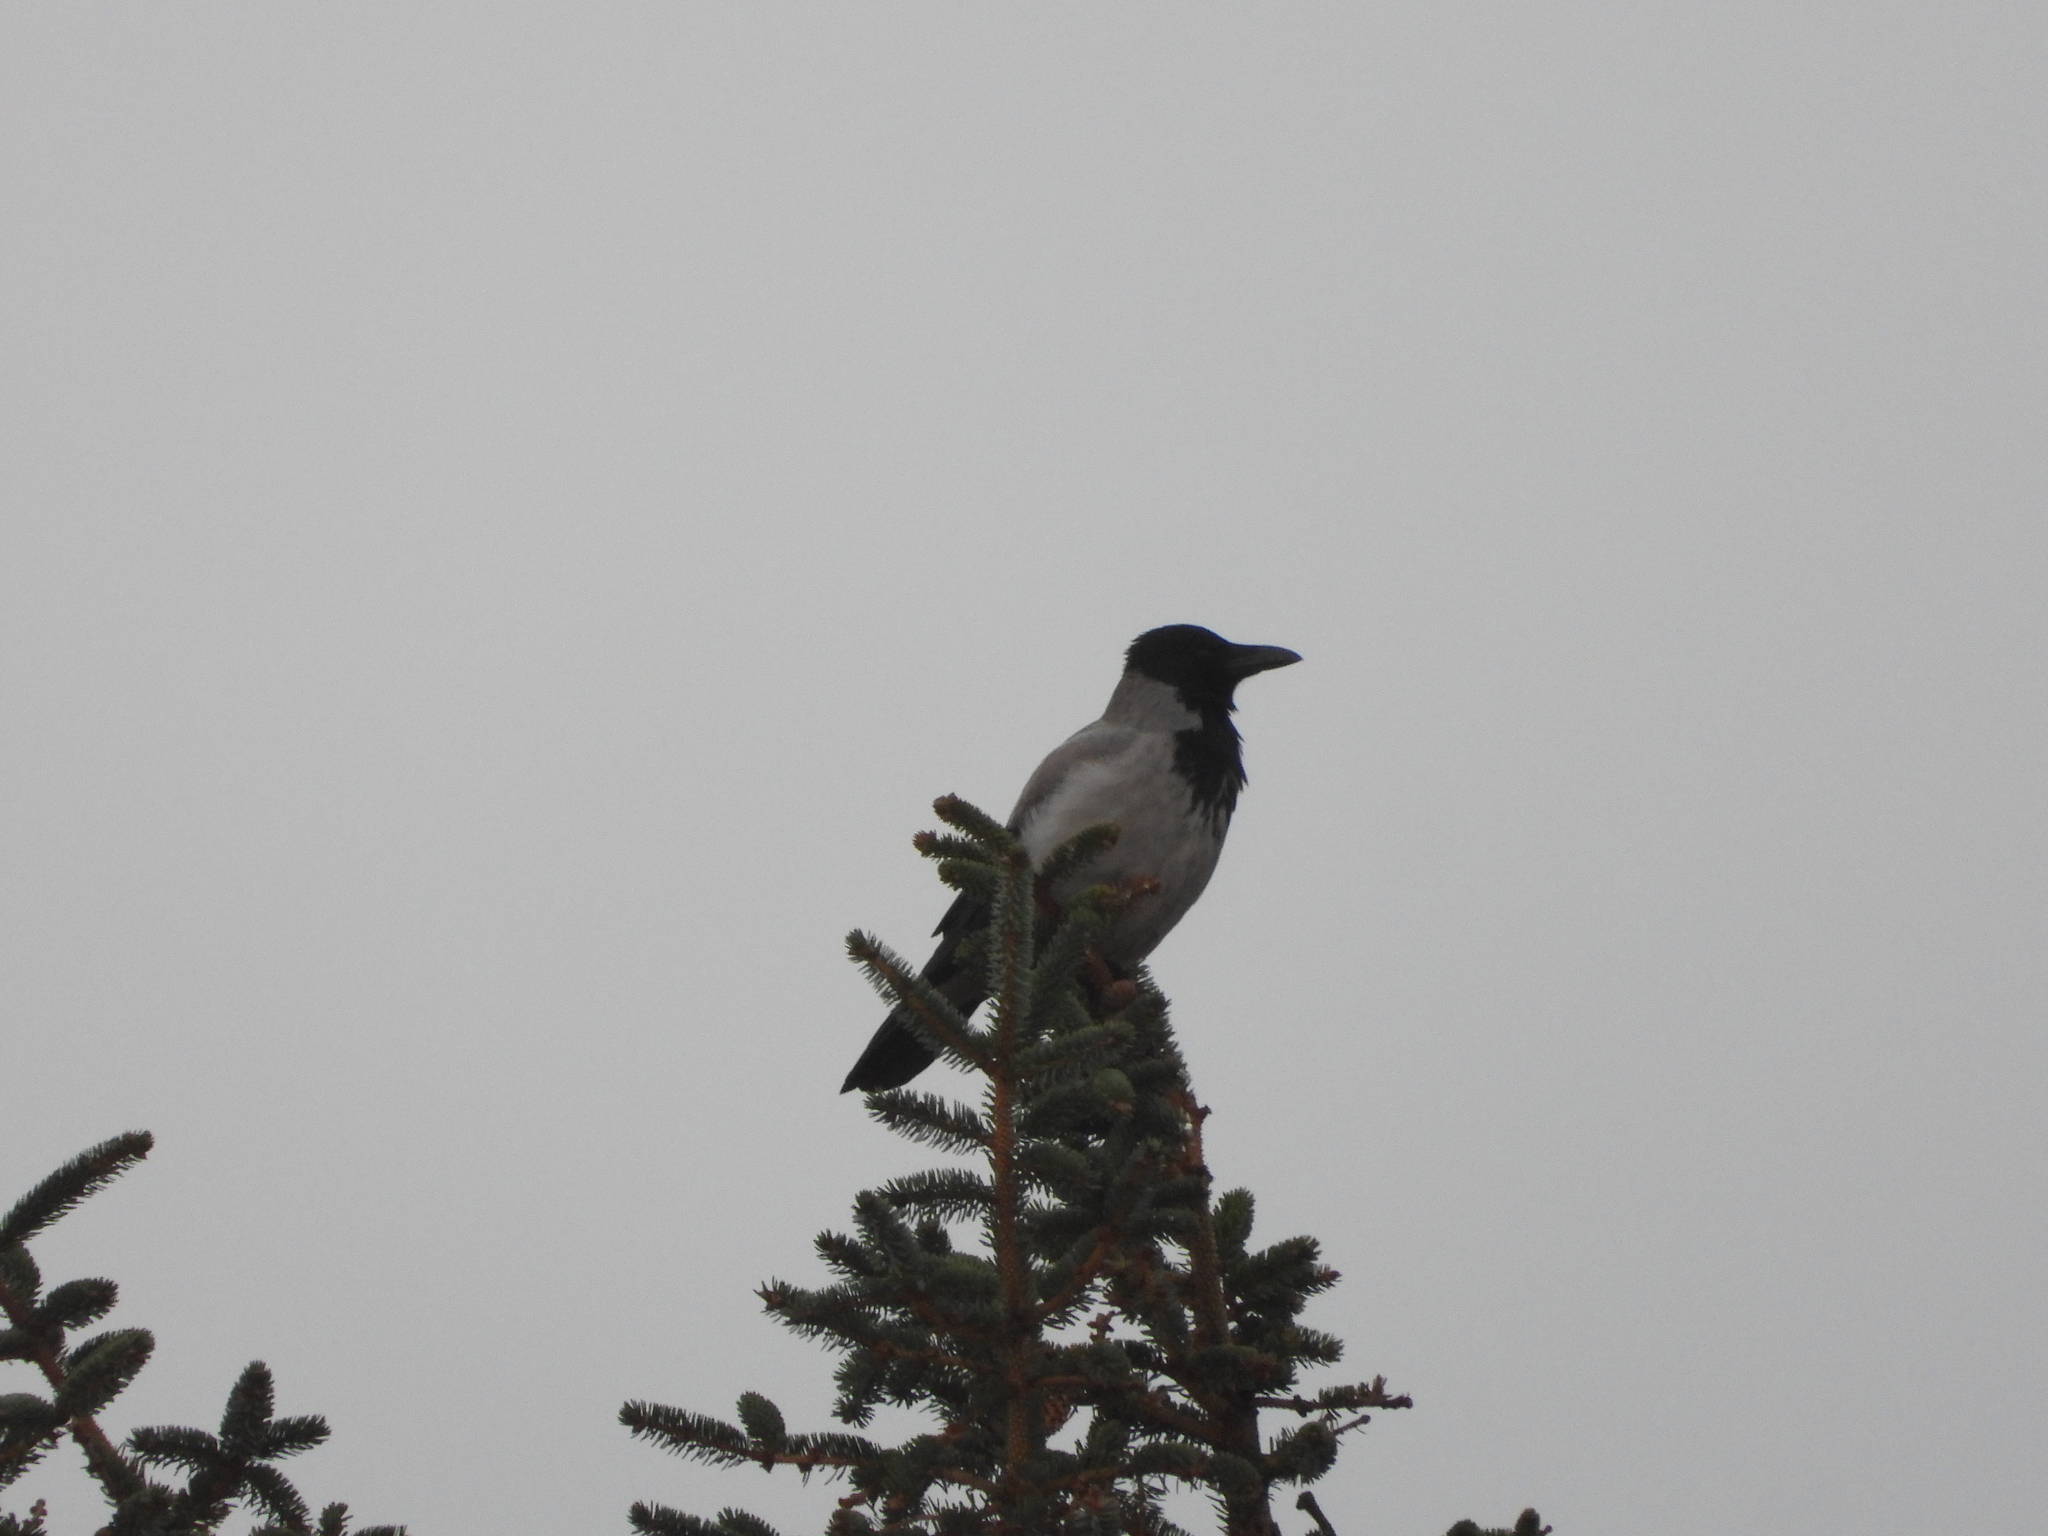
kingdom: Animalia
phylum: Chordata
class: Aves
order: Passeriformes
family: Corvidae
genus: Corvus
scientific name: Corvus cornix
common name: Hooded crow
